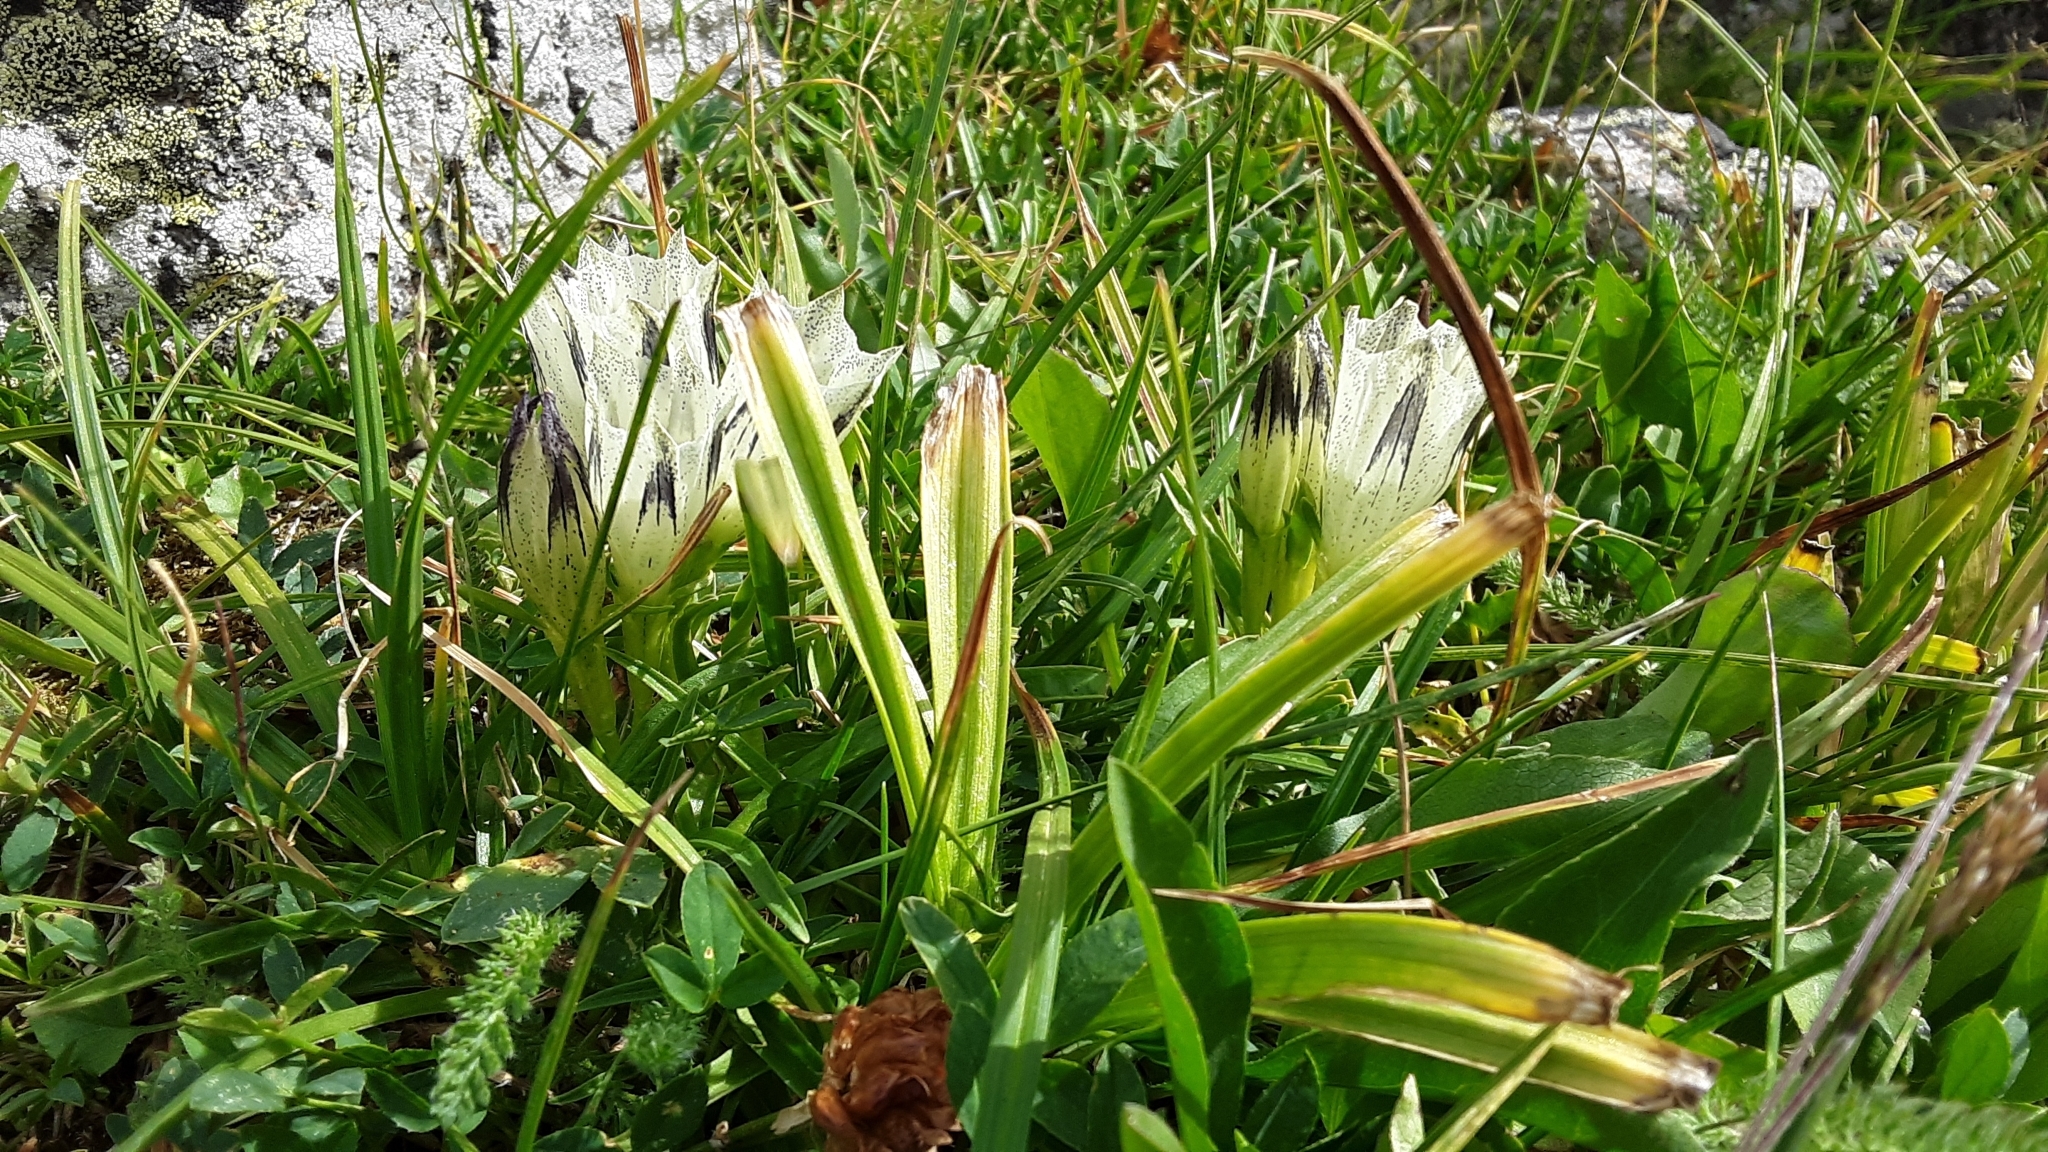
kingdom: Plantae
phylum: Tracheophyta
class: Magnoliopsida
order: Gentianales
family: Gentianaceae
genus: Gentiana
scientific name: Gentiana algida
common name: Arctic gentian
